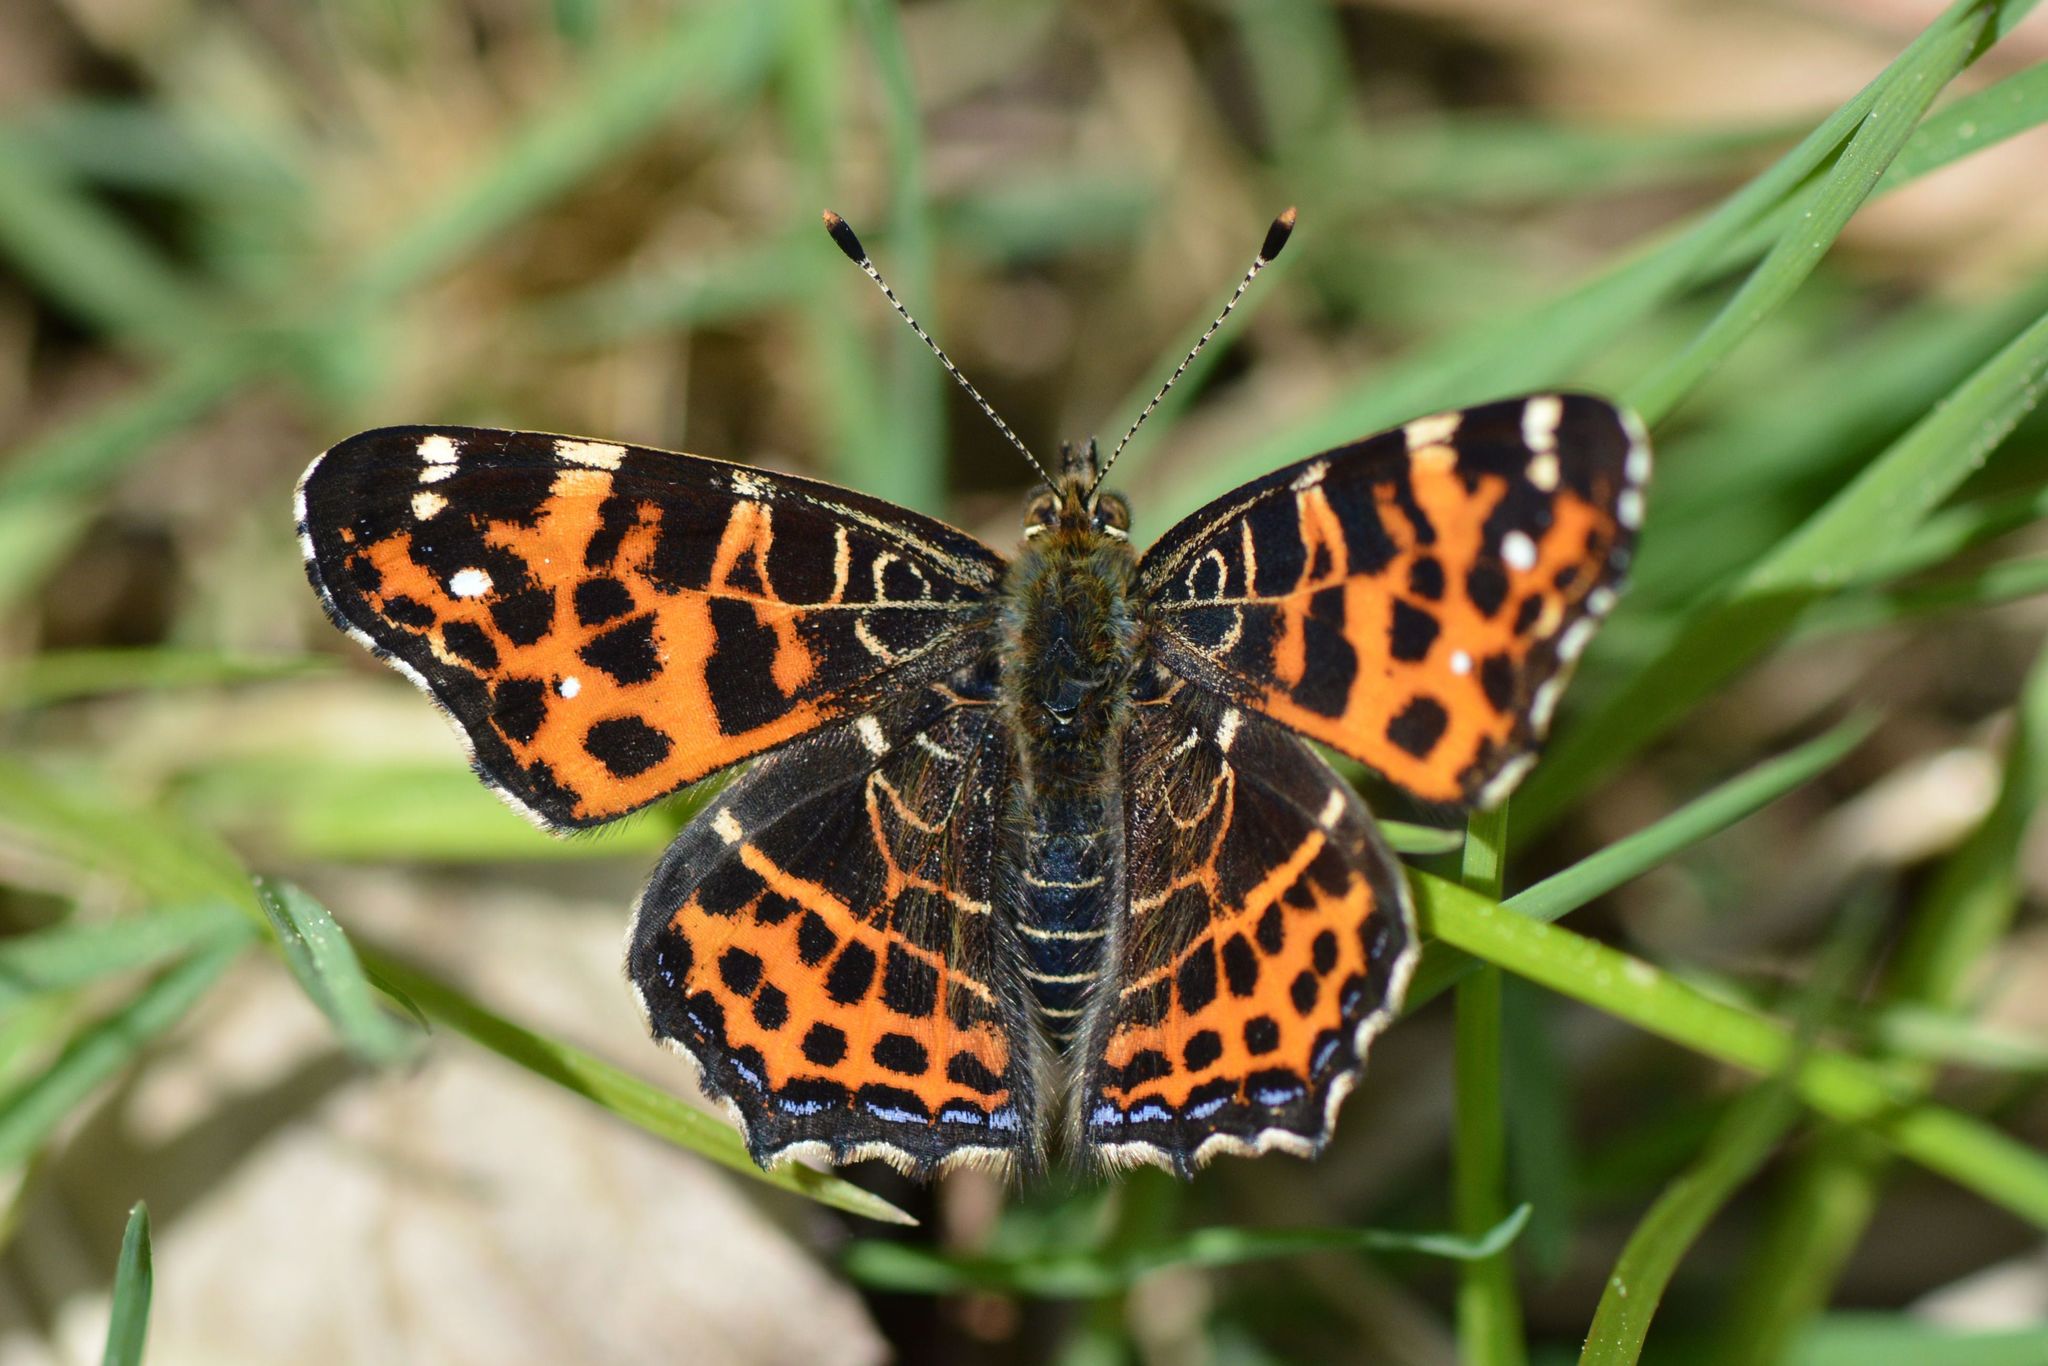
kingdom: Animalia
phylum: Arthropoda
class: Insecta
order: Lepidoptera
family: Nymphalidae
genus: Araschnia
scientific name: Araschnia levana
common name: Map butterfly
